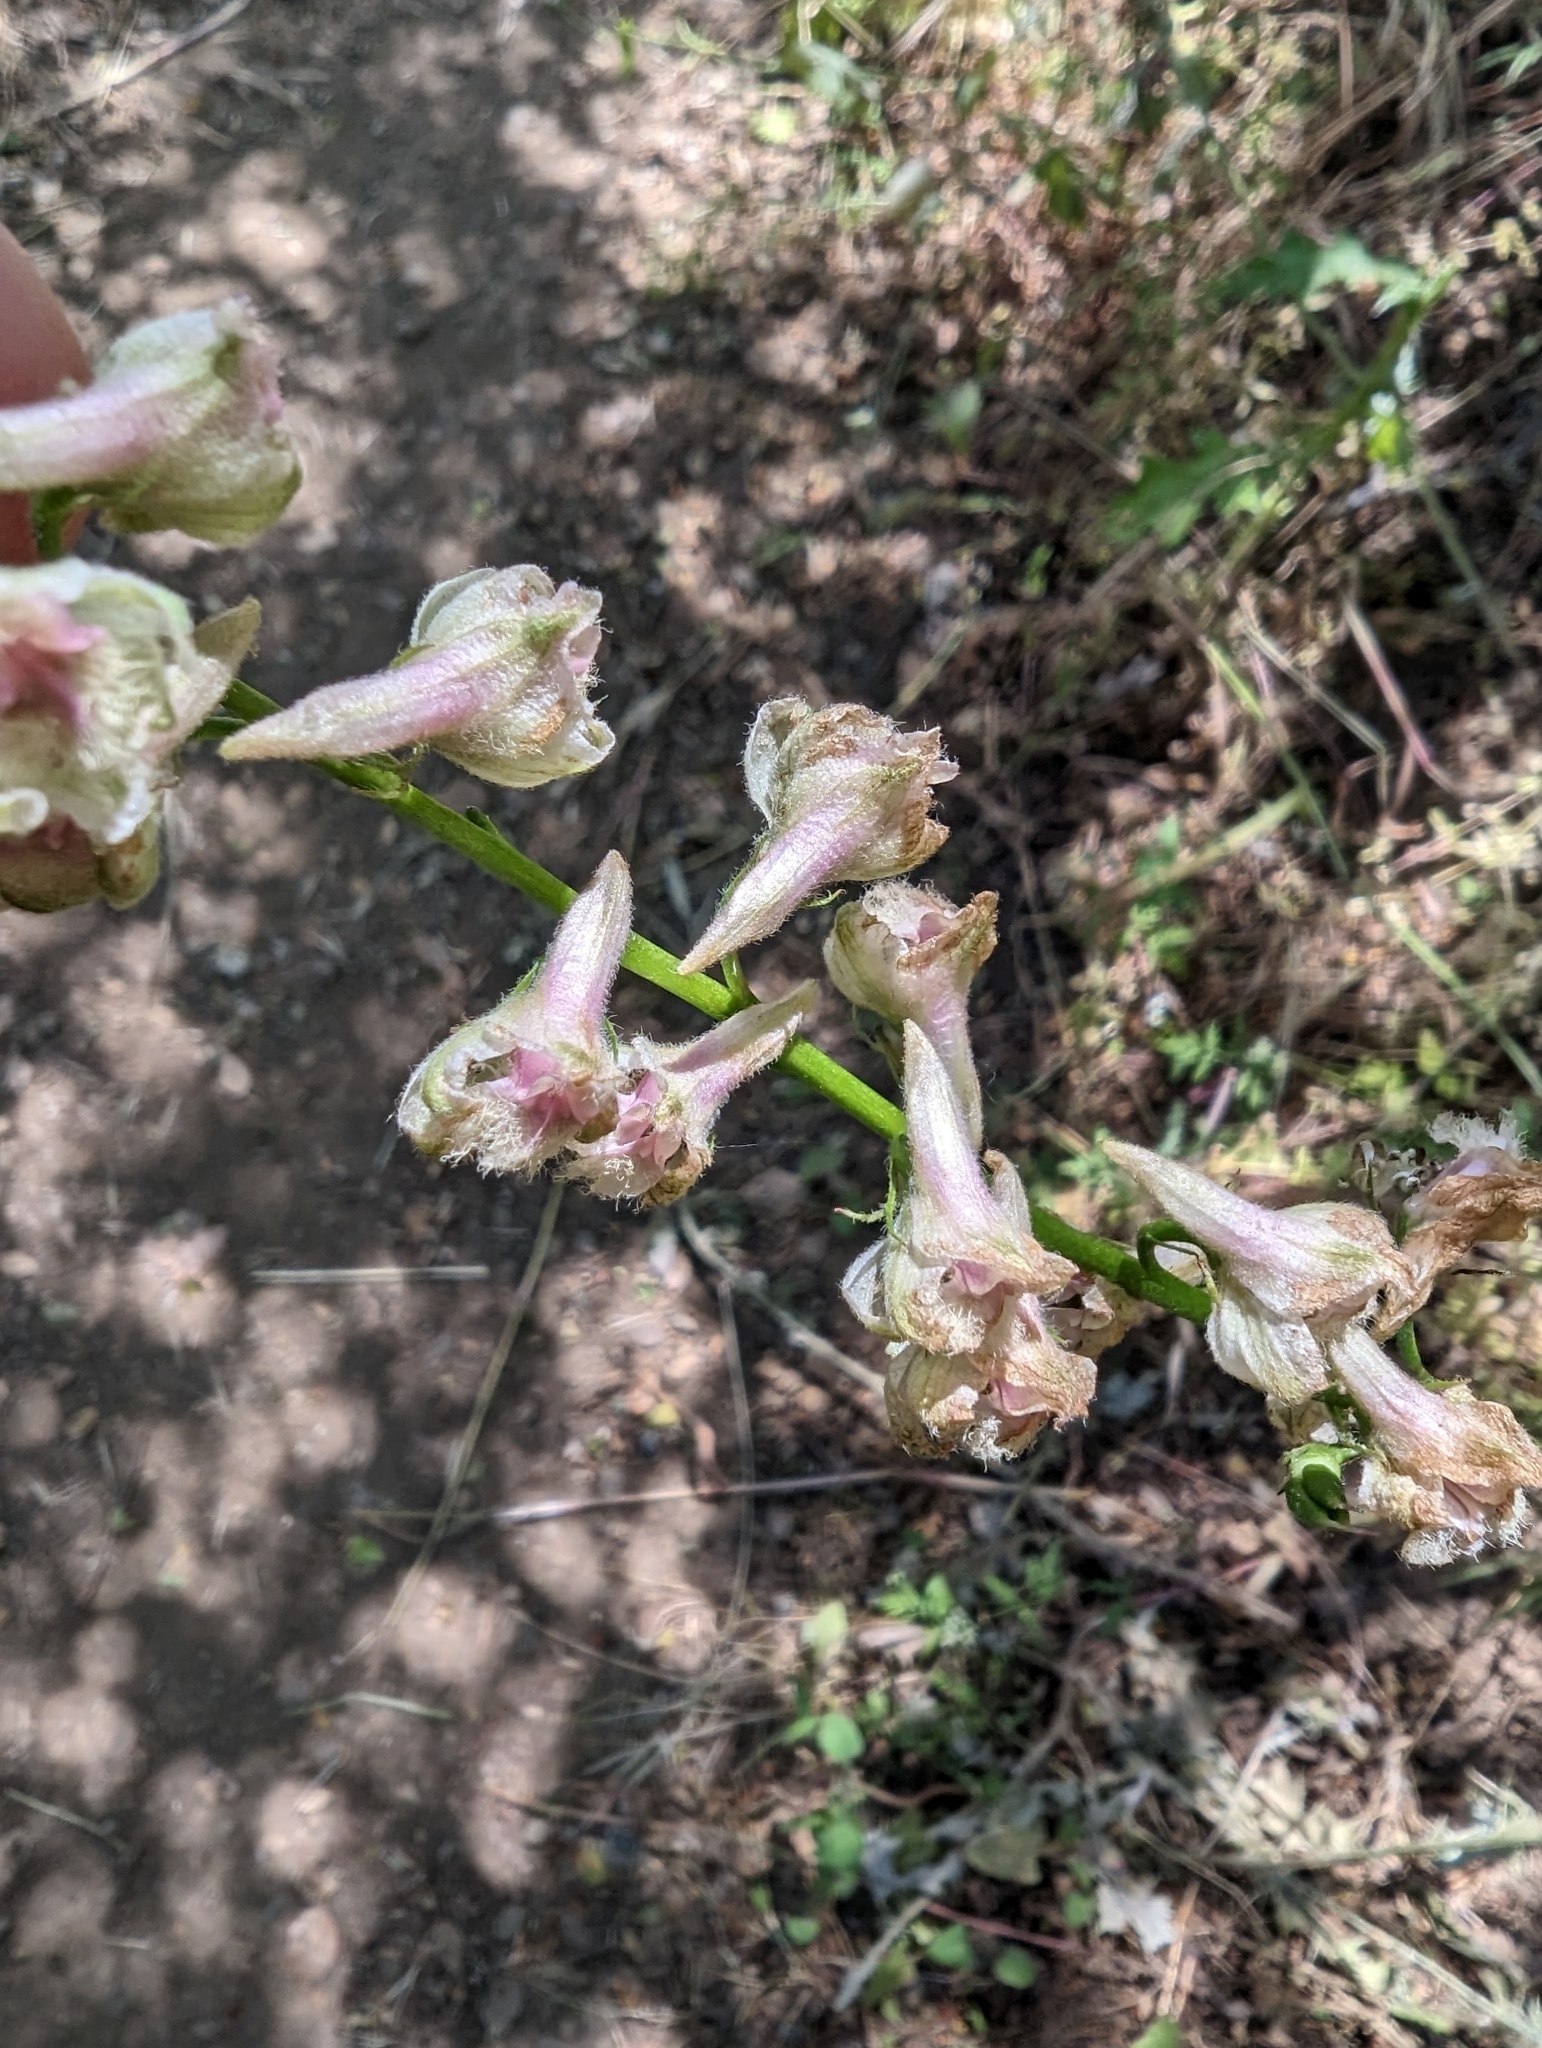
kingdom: Plantae
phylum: Tracheophyta
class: Magnoliopsida
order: Ranunculales
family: Ranunculaceae
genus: Delphinium
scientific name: Delphinium californicum
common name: California larkspur
